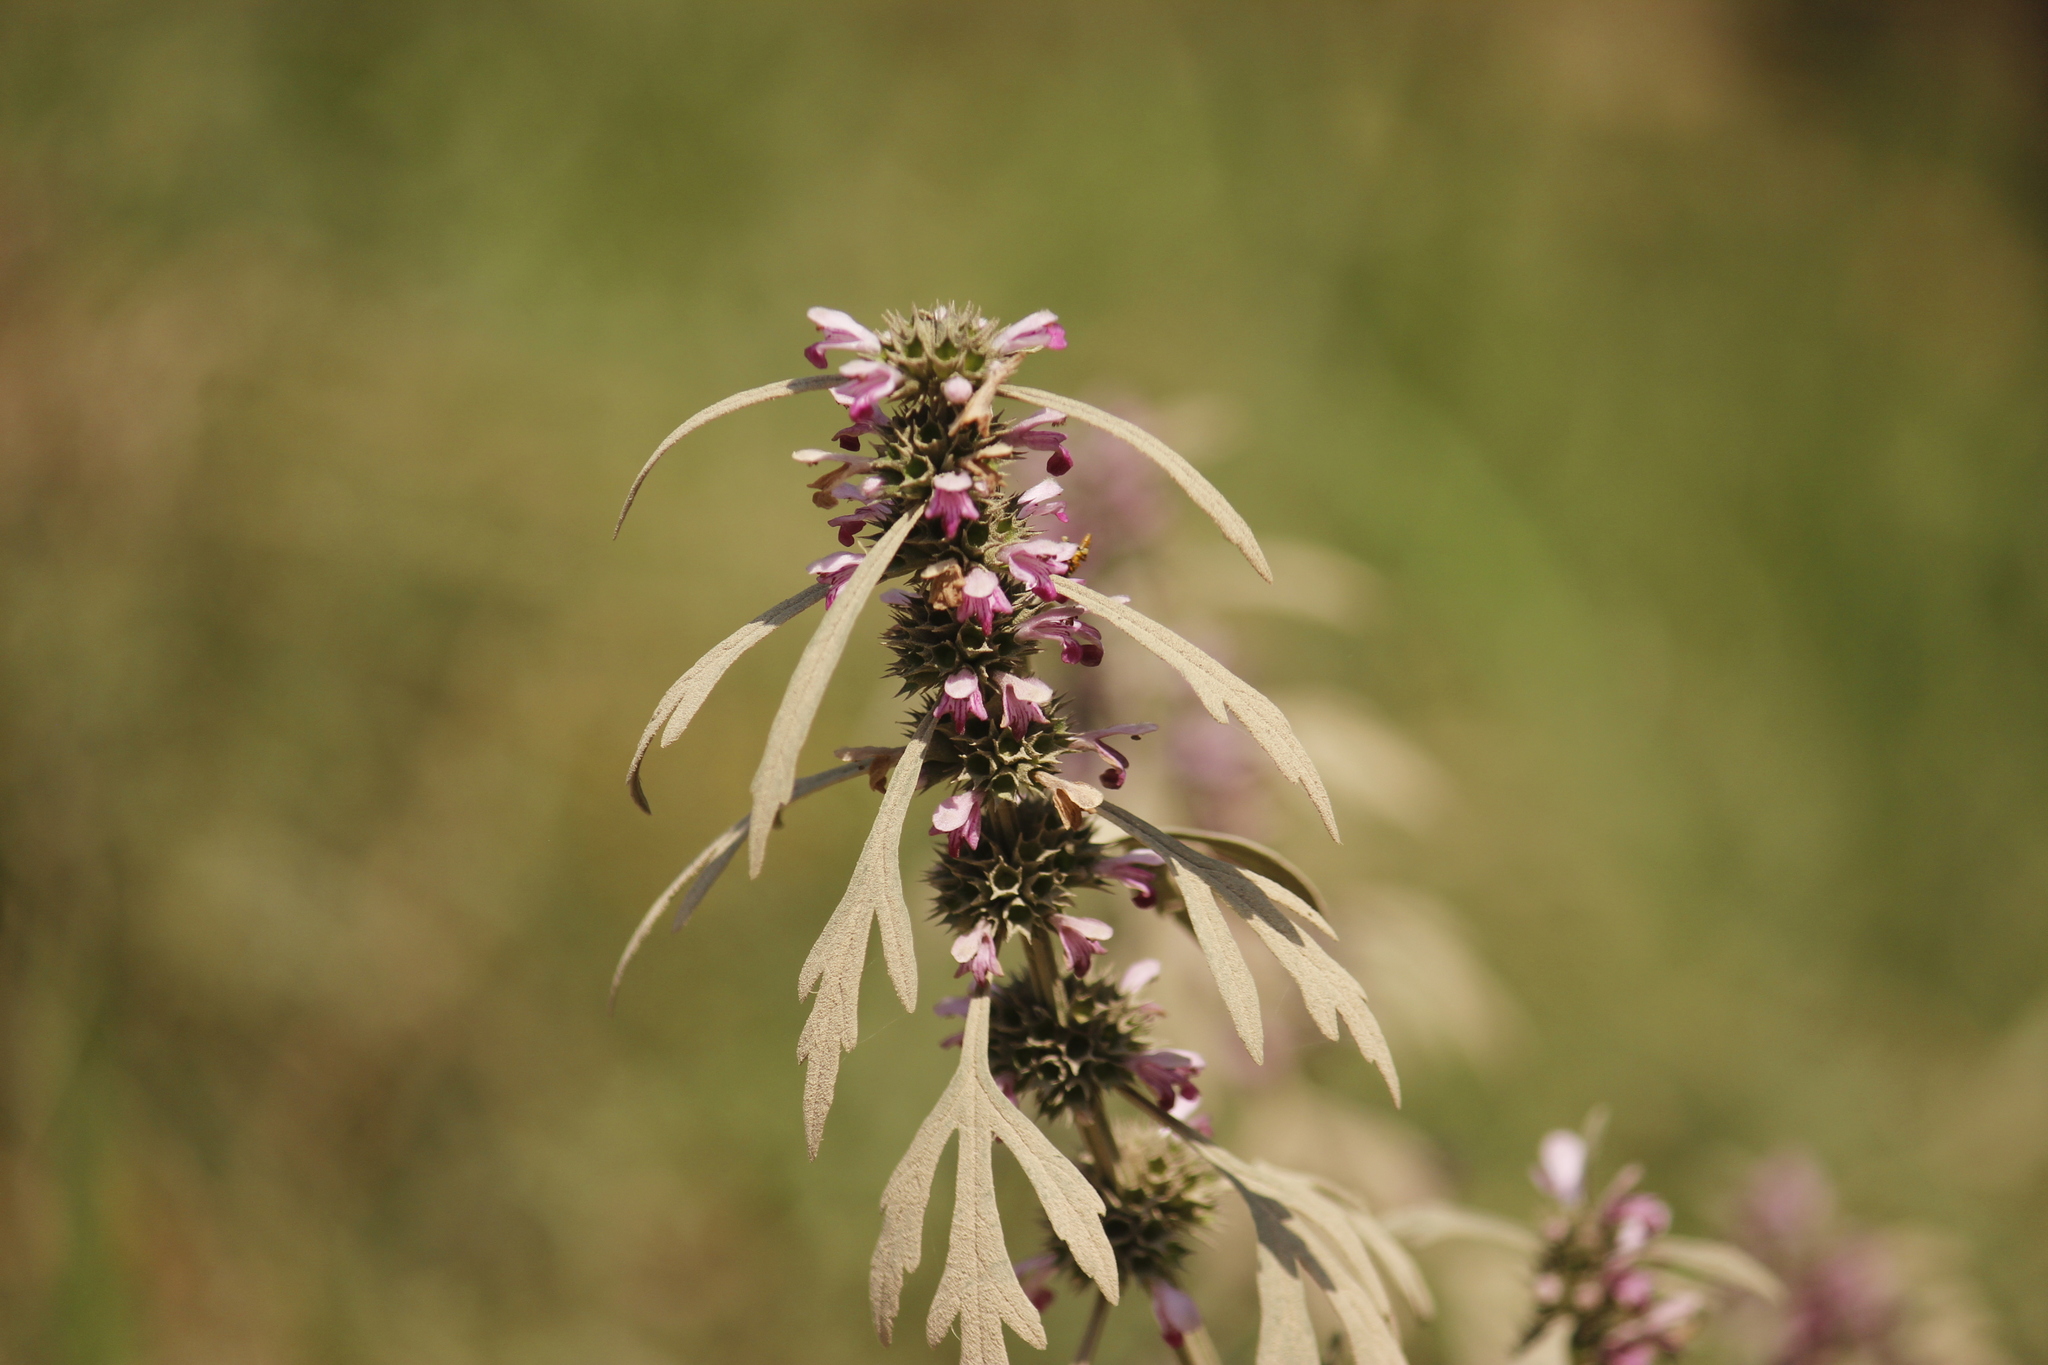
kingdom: Plantae
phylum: Tracheophyta
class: Magnoliopsida
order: Lamiales
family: Lamiaceae
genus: Leonurus
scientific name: Leonurus japonicus
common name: Honeyweed
